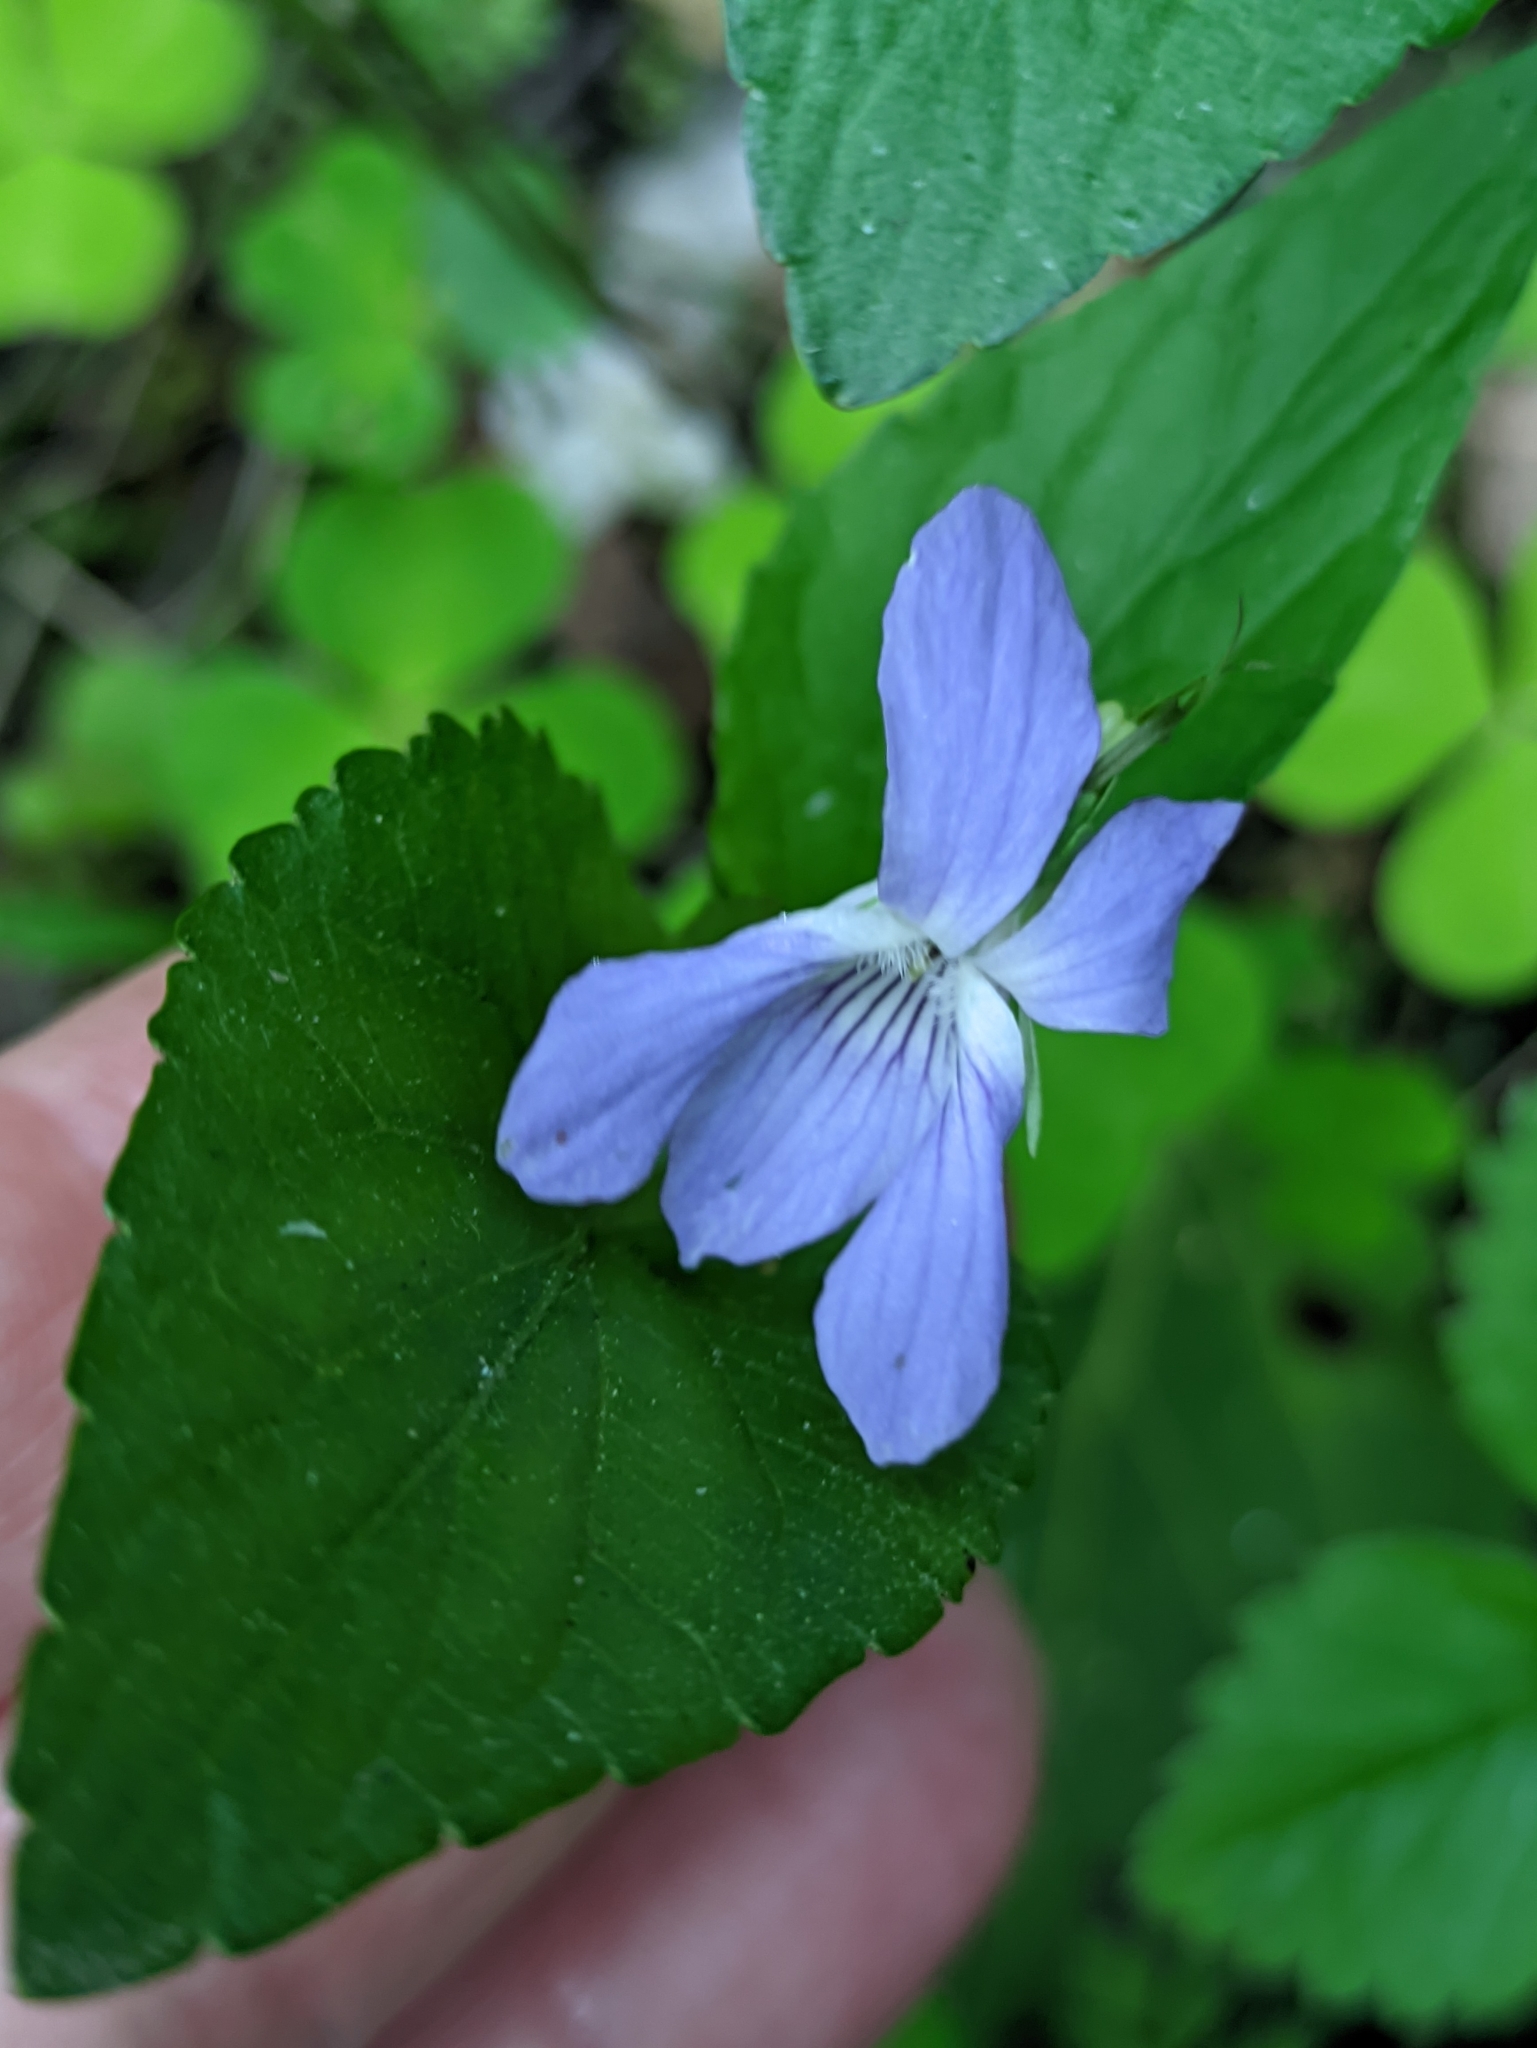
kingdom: Plantae
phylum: Tracheophyta
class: Magnoliopsida
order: Malpighiales
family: Violaceae
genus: Viola
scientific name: Viola
